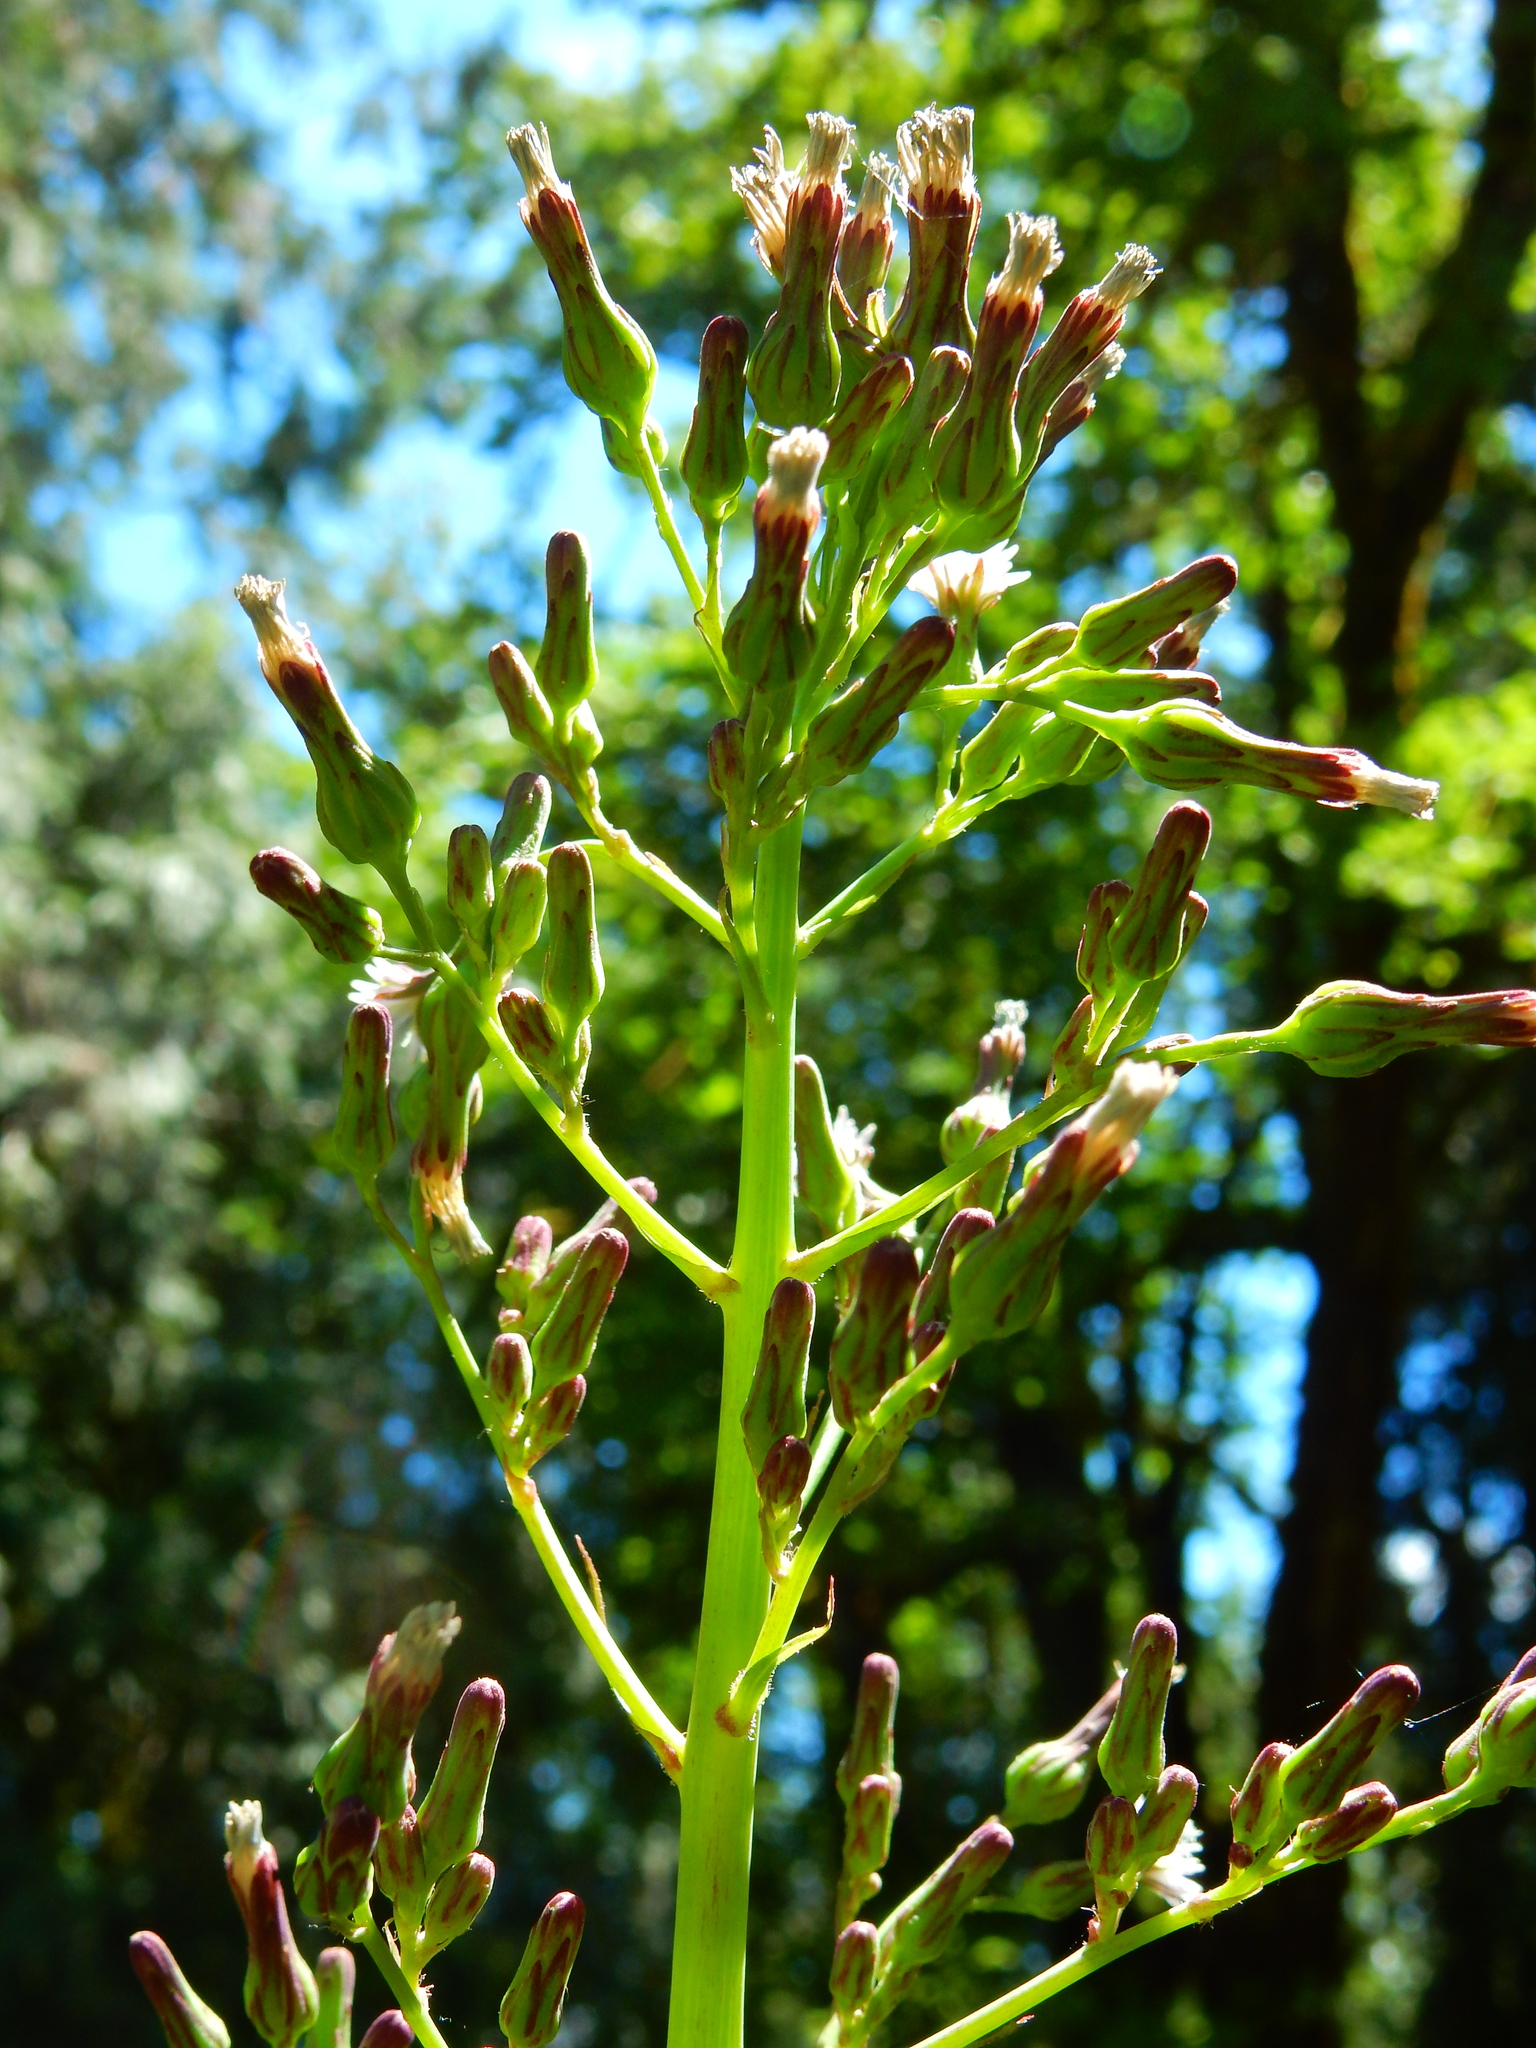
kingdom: Plantae
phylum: Tracheophyta
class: Magnoliopsida
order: Asterales
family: Asteraceae
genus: Lactuca
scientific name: Lactuca biennis
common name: Blue wood lettuce
